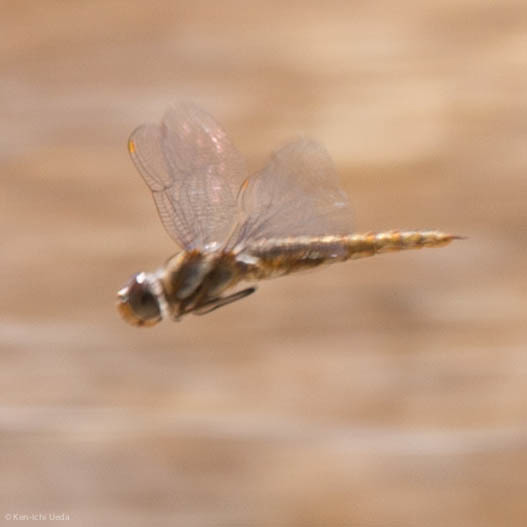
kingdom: Animalia
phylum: Arthropoda
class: Insecta
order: Odonata
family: Libellulidae
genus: Sympetrum
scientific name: Sympetrum corruptum
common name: Variegated meadowhawk
